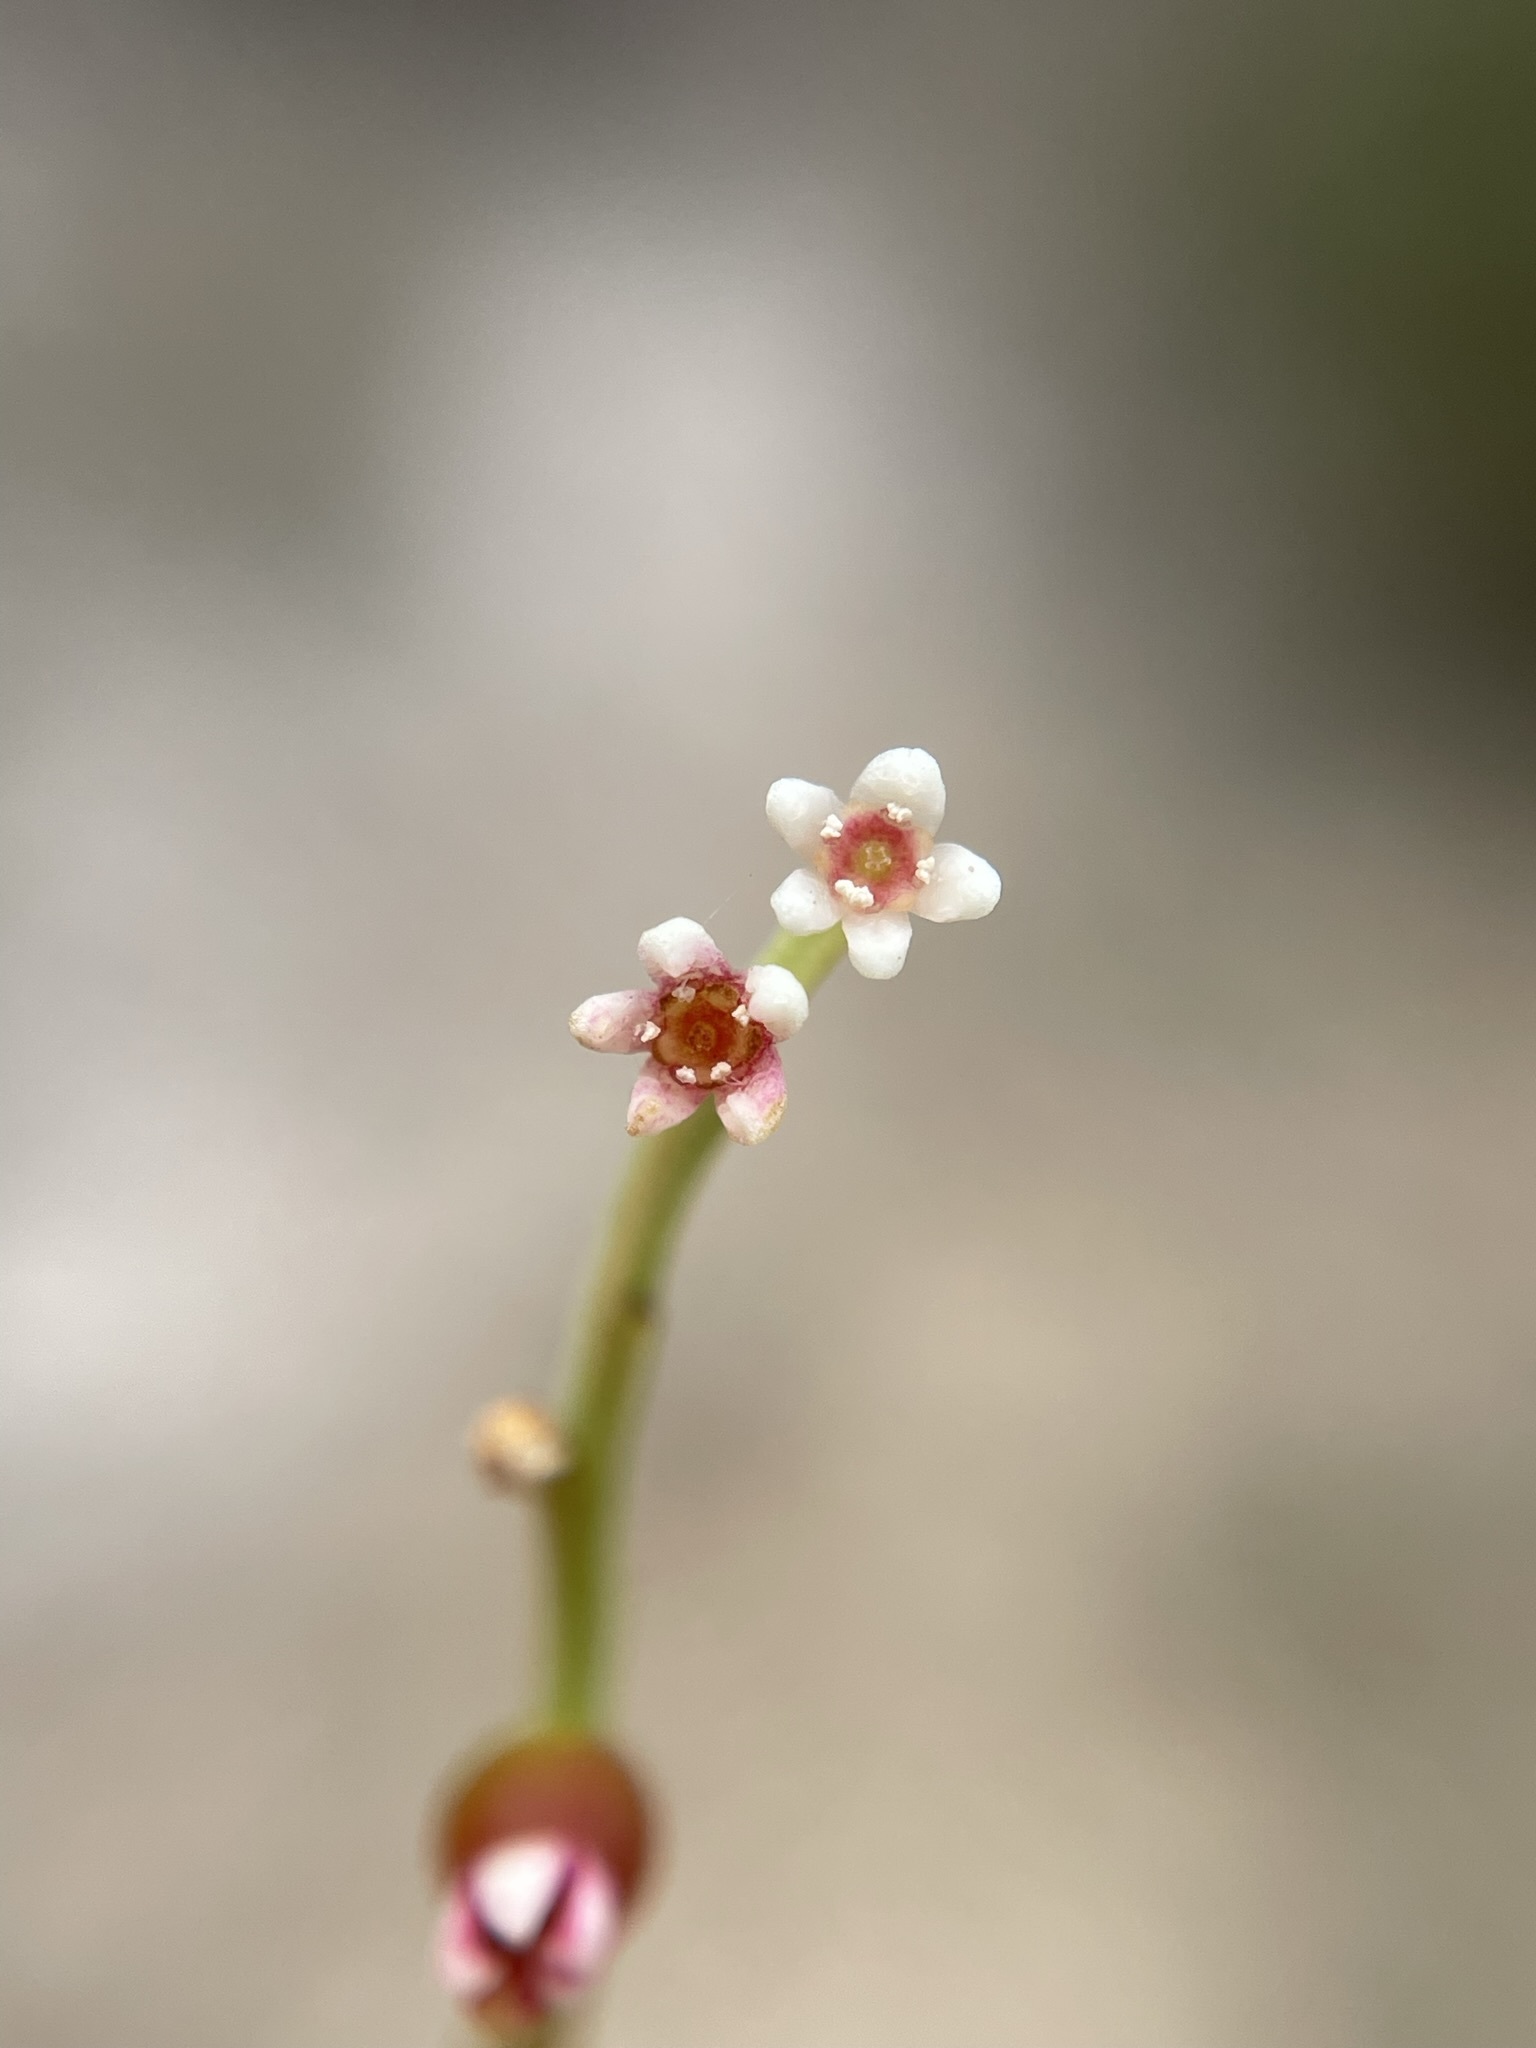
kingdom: Plantae
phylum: Tracheophyta
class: Magnoliopsida
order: Santalales
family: Amphorogynaceae
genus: Leptomeria
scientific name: Leptomeria drupacea
